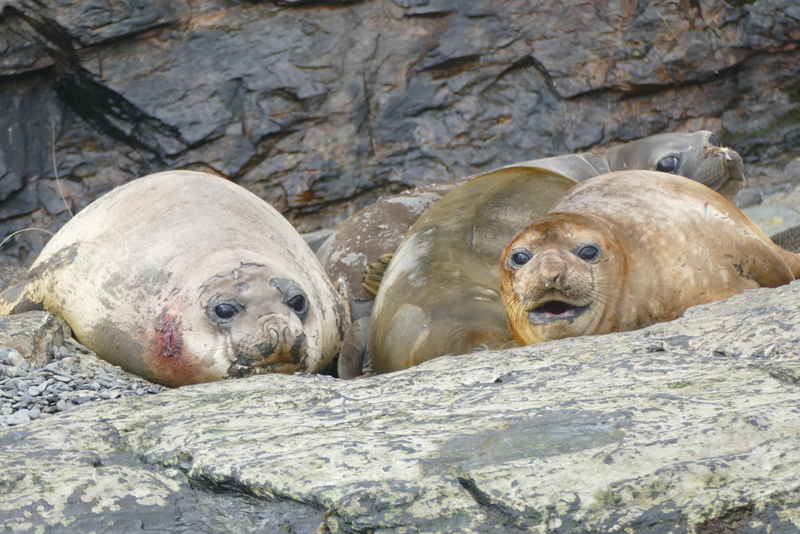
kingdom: Animalia
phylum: Chordata
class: Mammalia
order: Carnivora
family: Phocidae
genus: Mirounga
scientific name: Mirounga leonina
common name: Southern elephant seal
